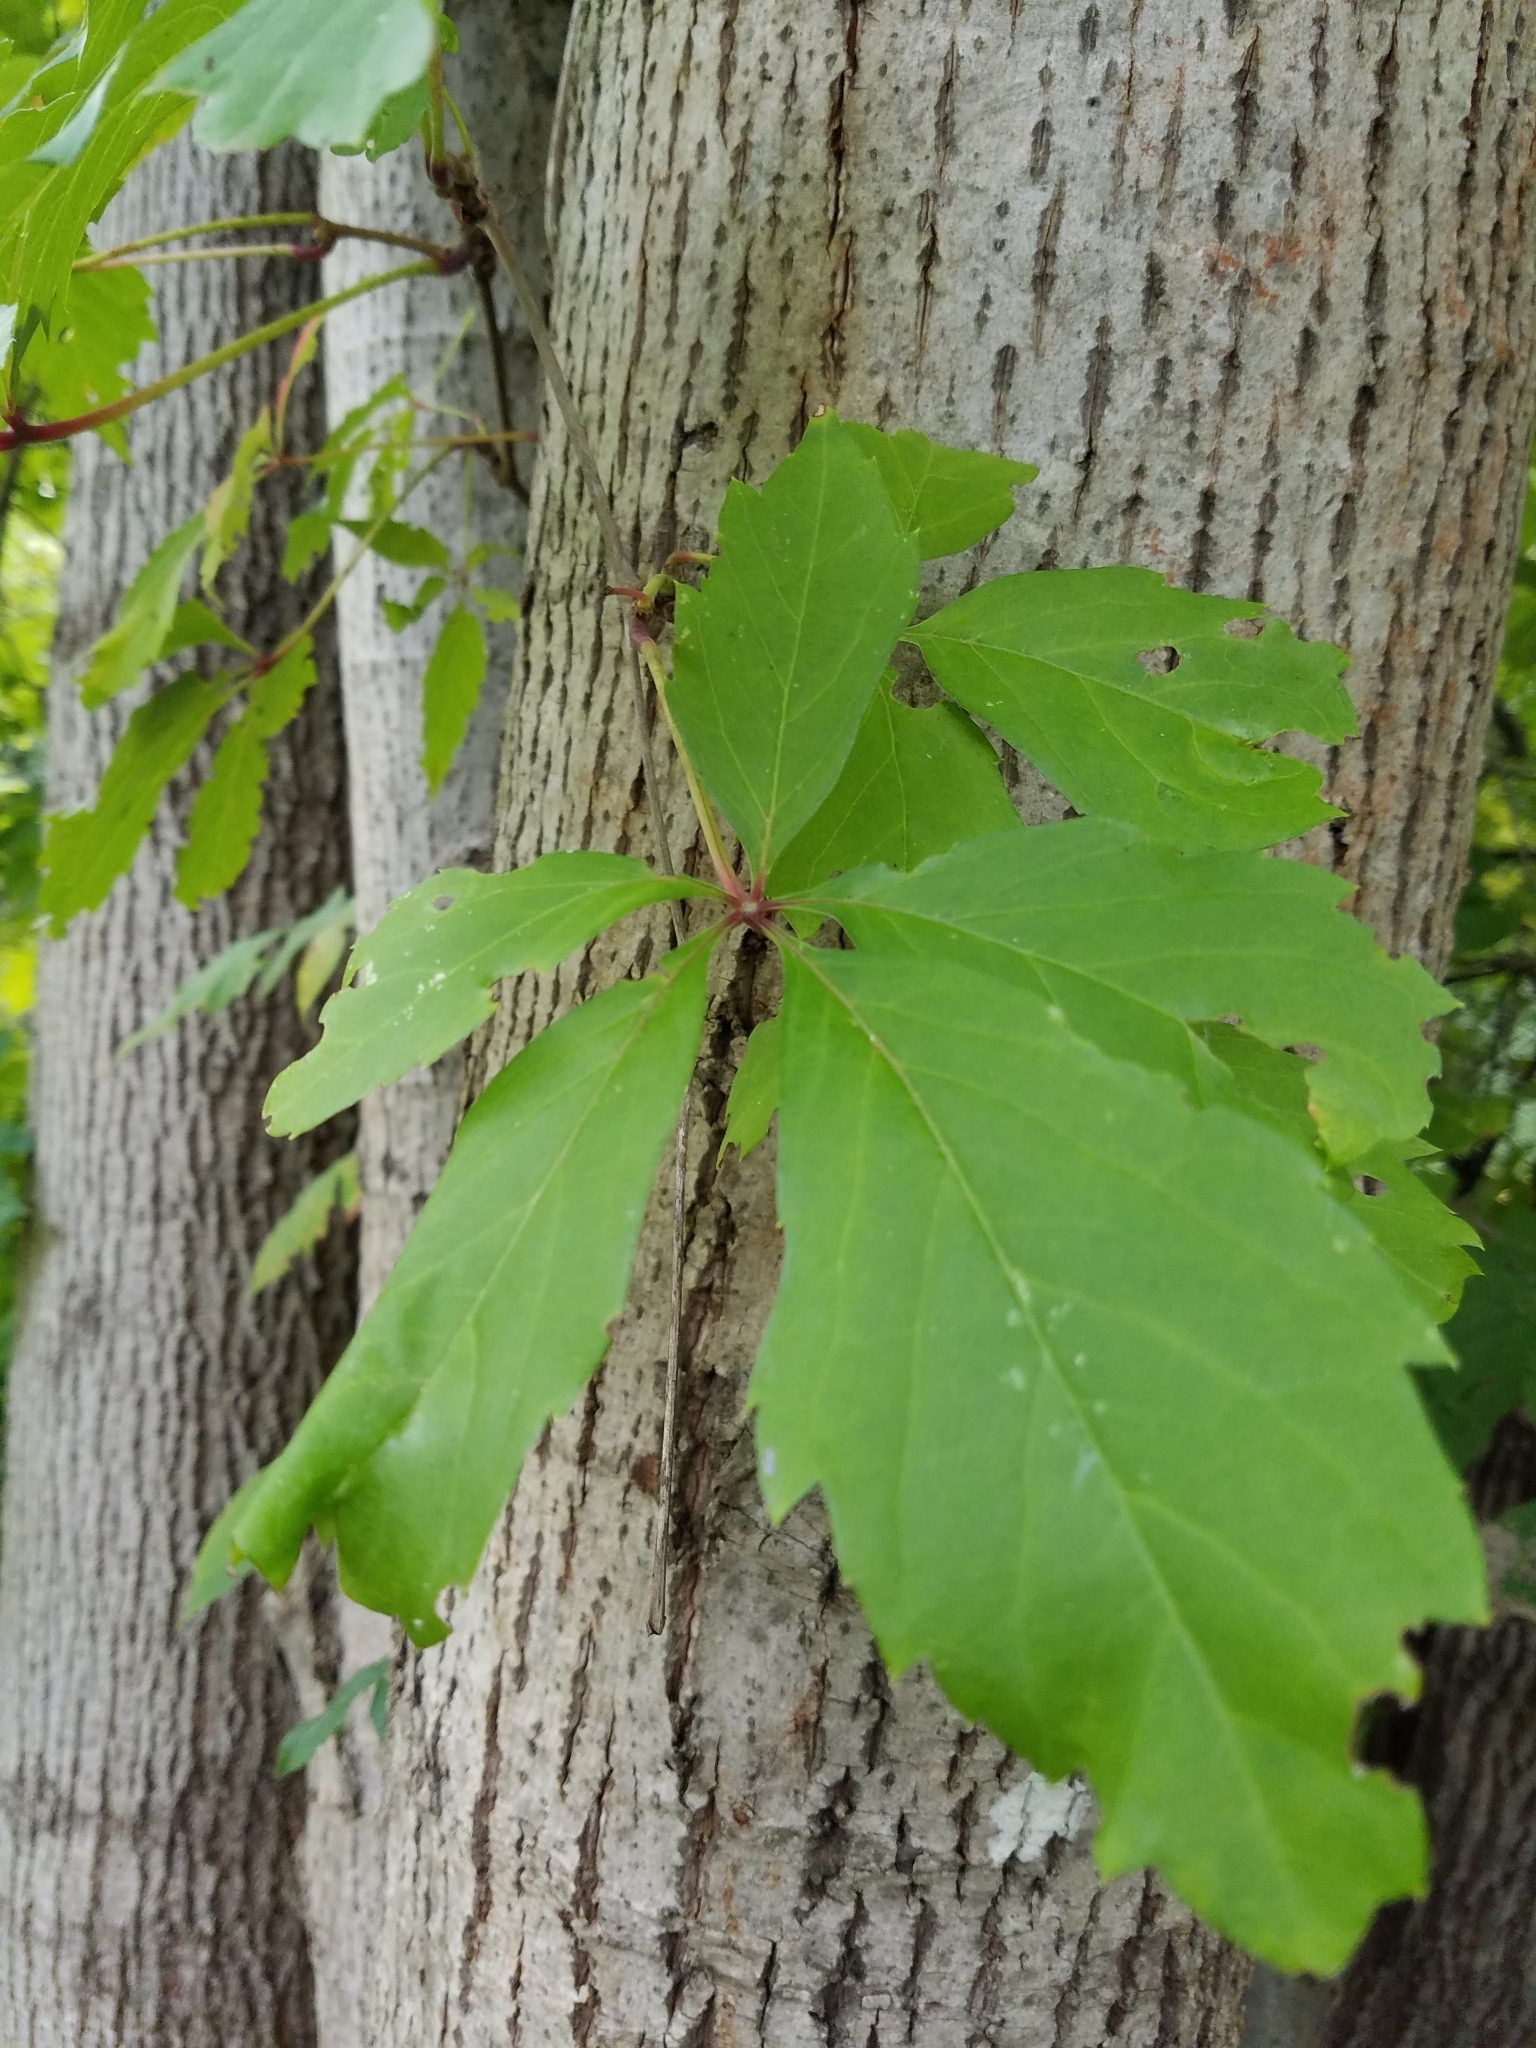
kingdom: Plantae
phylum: Tracheophyta
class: Magnoliopsida
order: Vitales
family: Vitaceae
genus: Parthenocissus
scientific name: Parthenocissus quinquefolia
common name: Virginia-creeper
